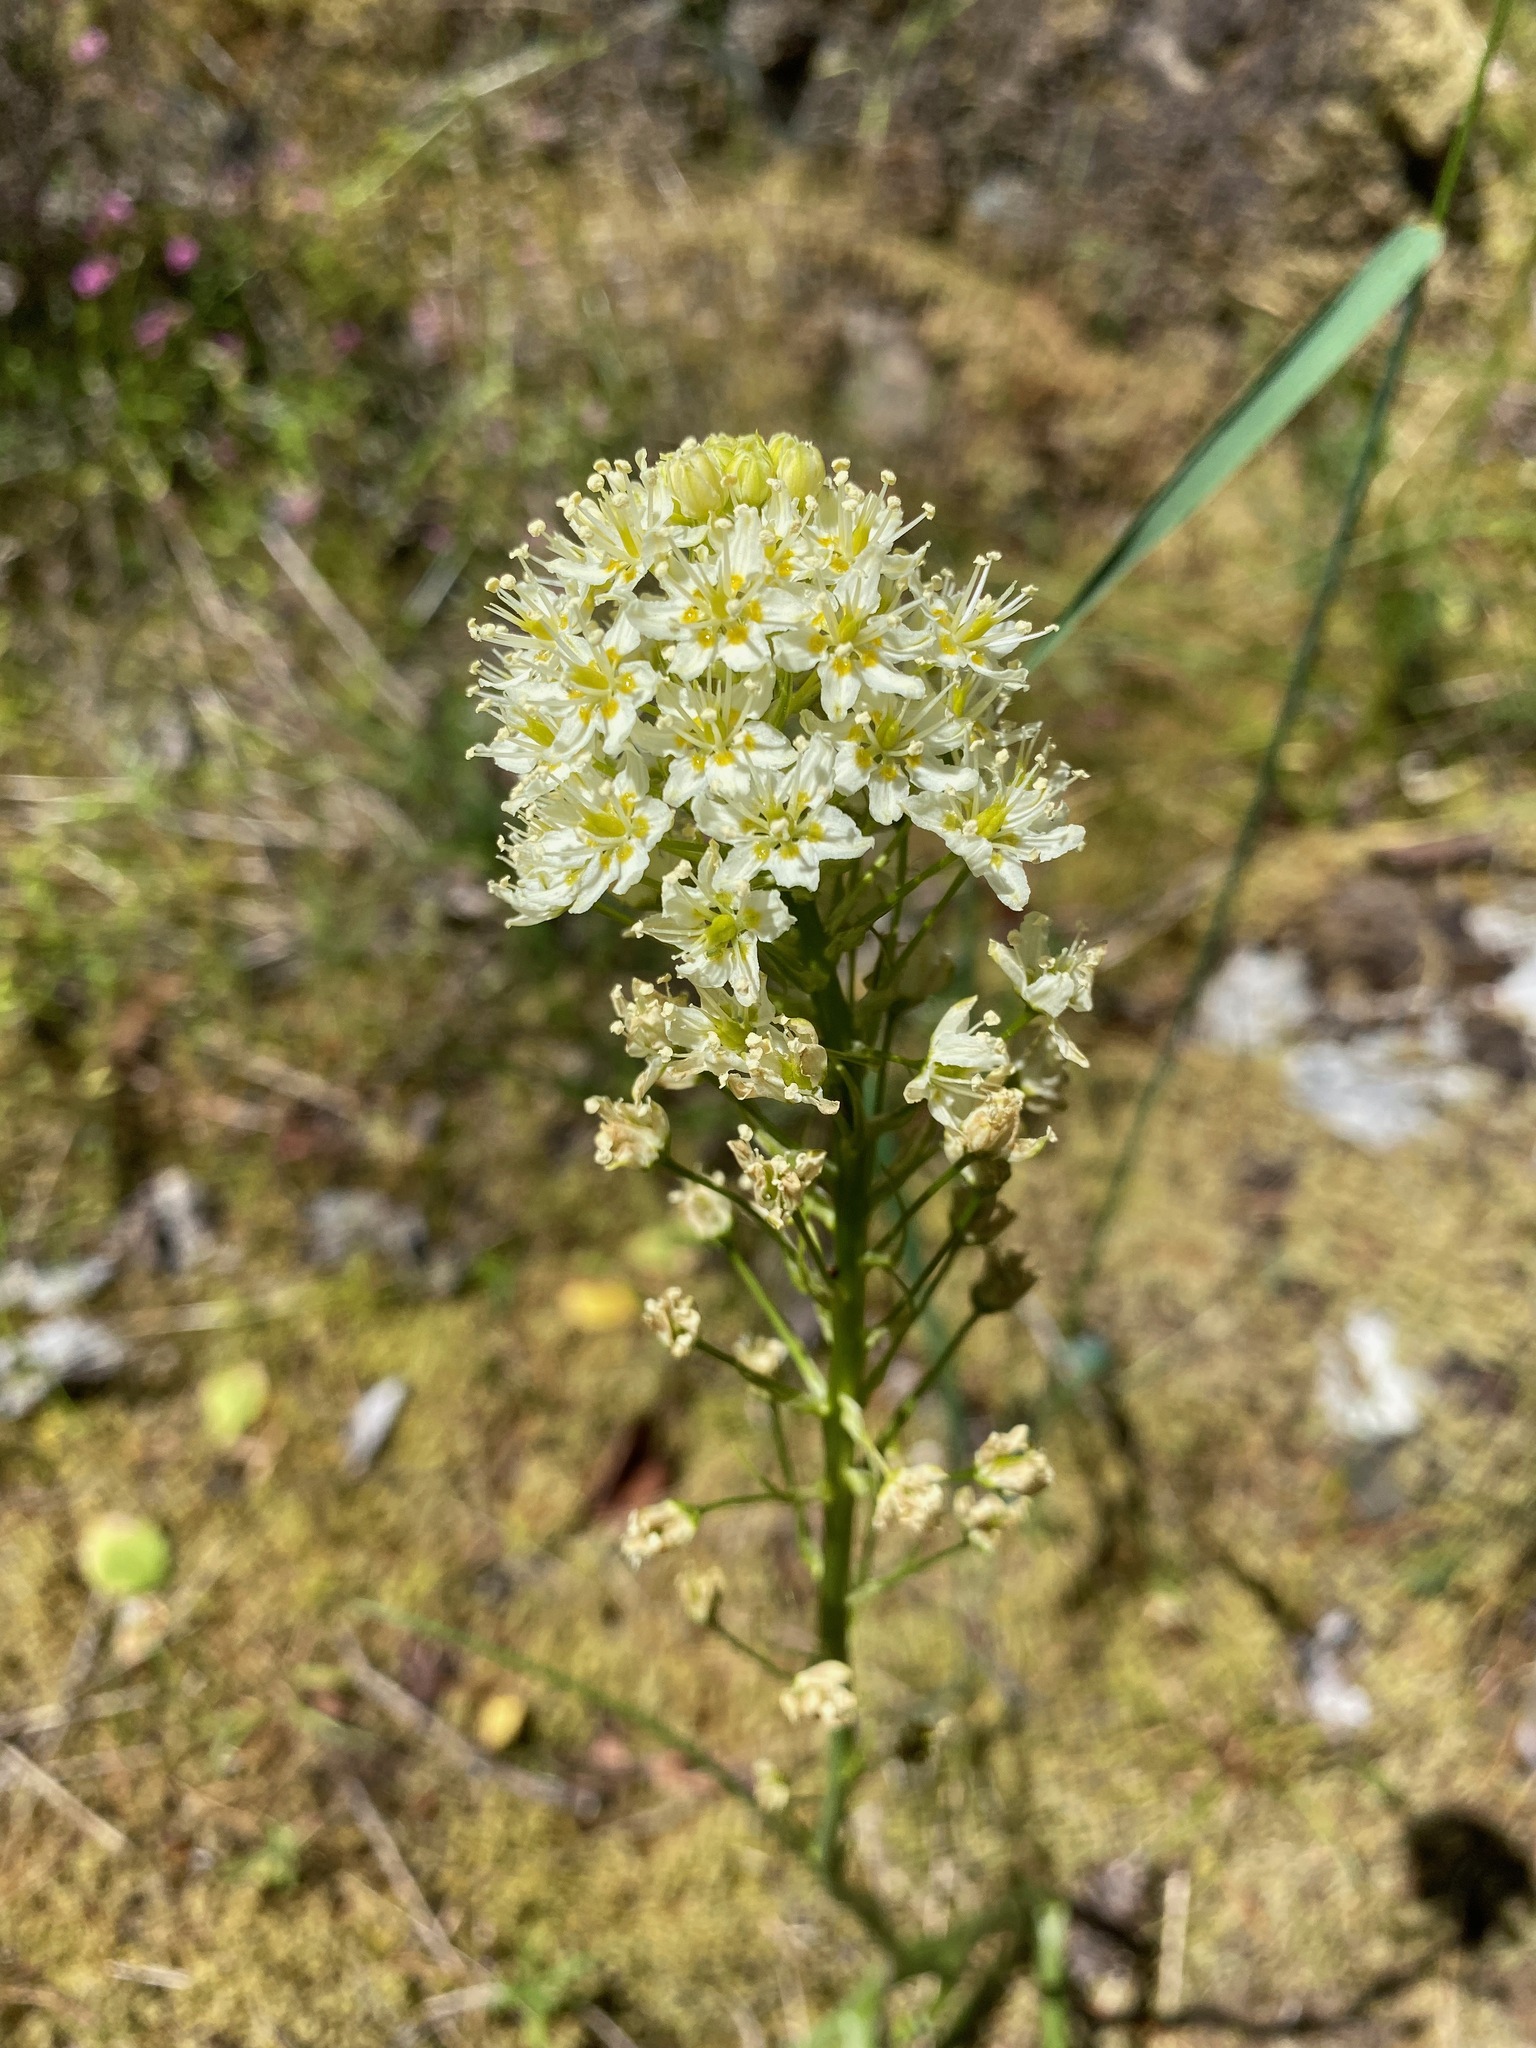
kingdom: Plantae
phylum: Tracheophyta
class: Liliopsida
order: Liliales
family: Melanthiaceae
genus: Toxicoscordion
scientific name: Toxicoscordion venenosum
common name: Meadow death camas
